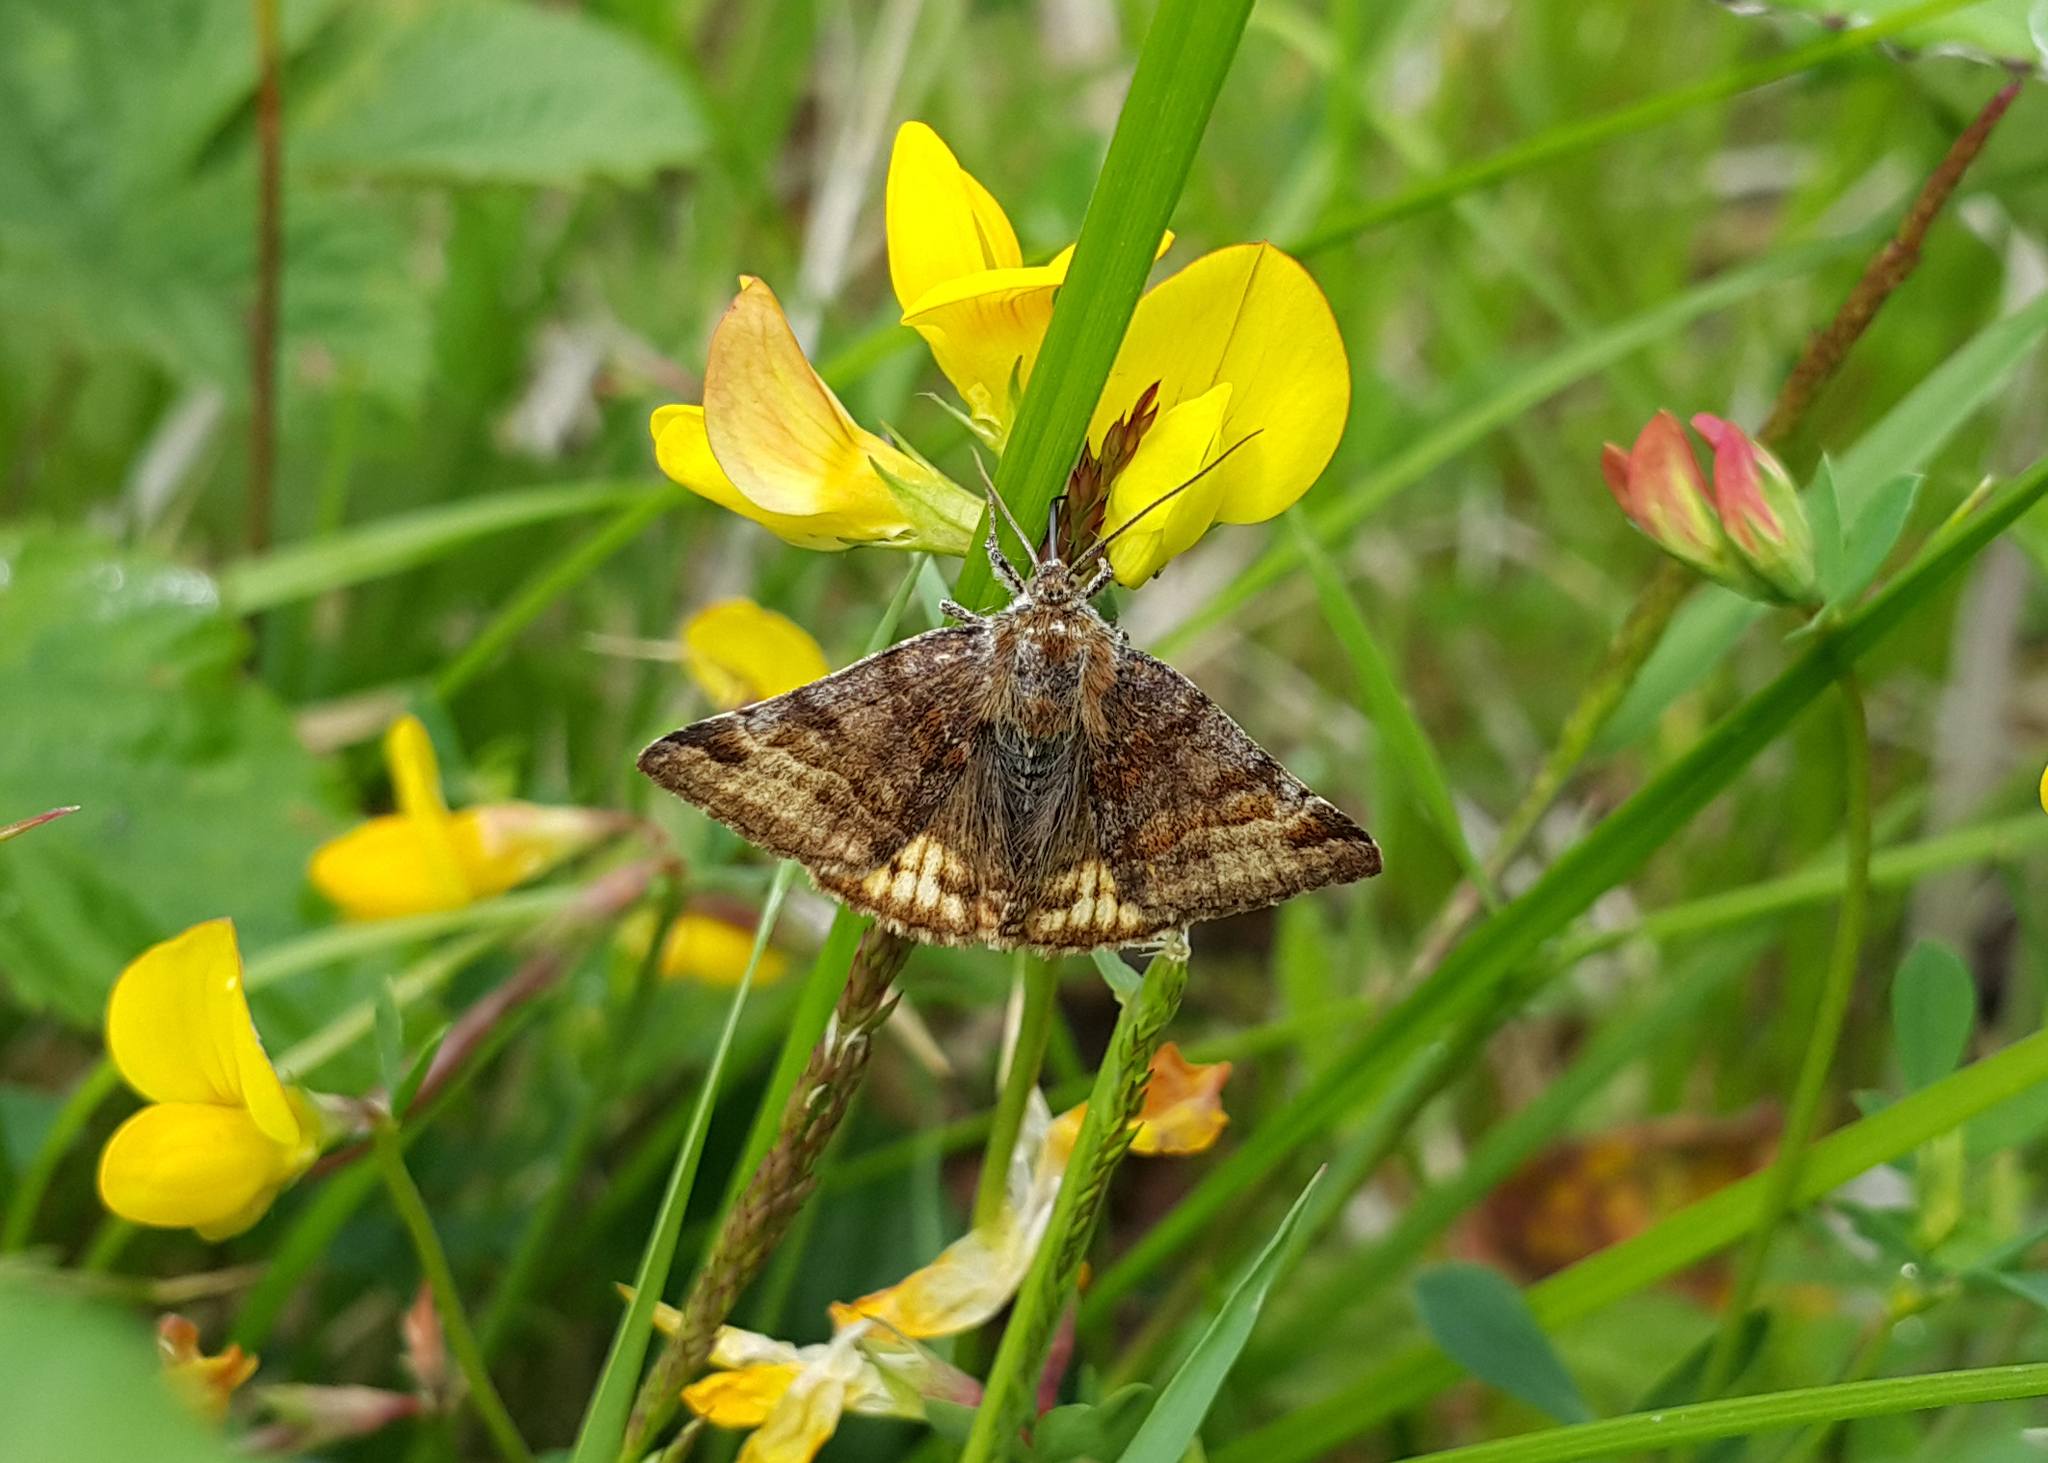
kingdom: Animalia
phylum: Arthropoda
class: Insecta
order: Lepidoptera
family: Erebidae
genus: Euclidia
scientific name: Euclidia glyphica
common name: Burnet companion
